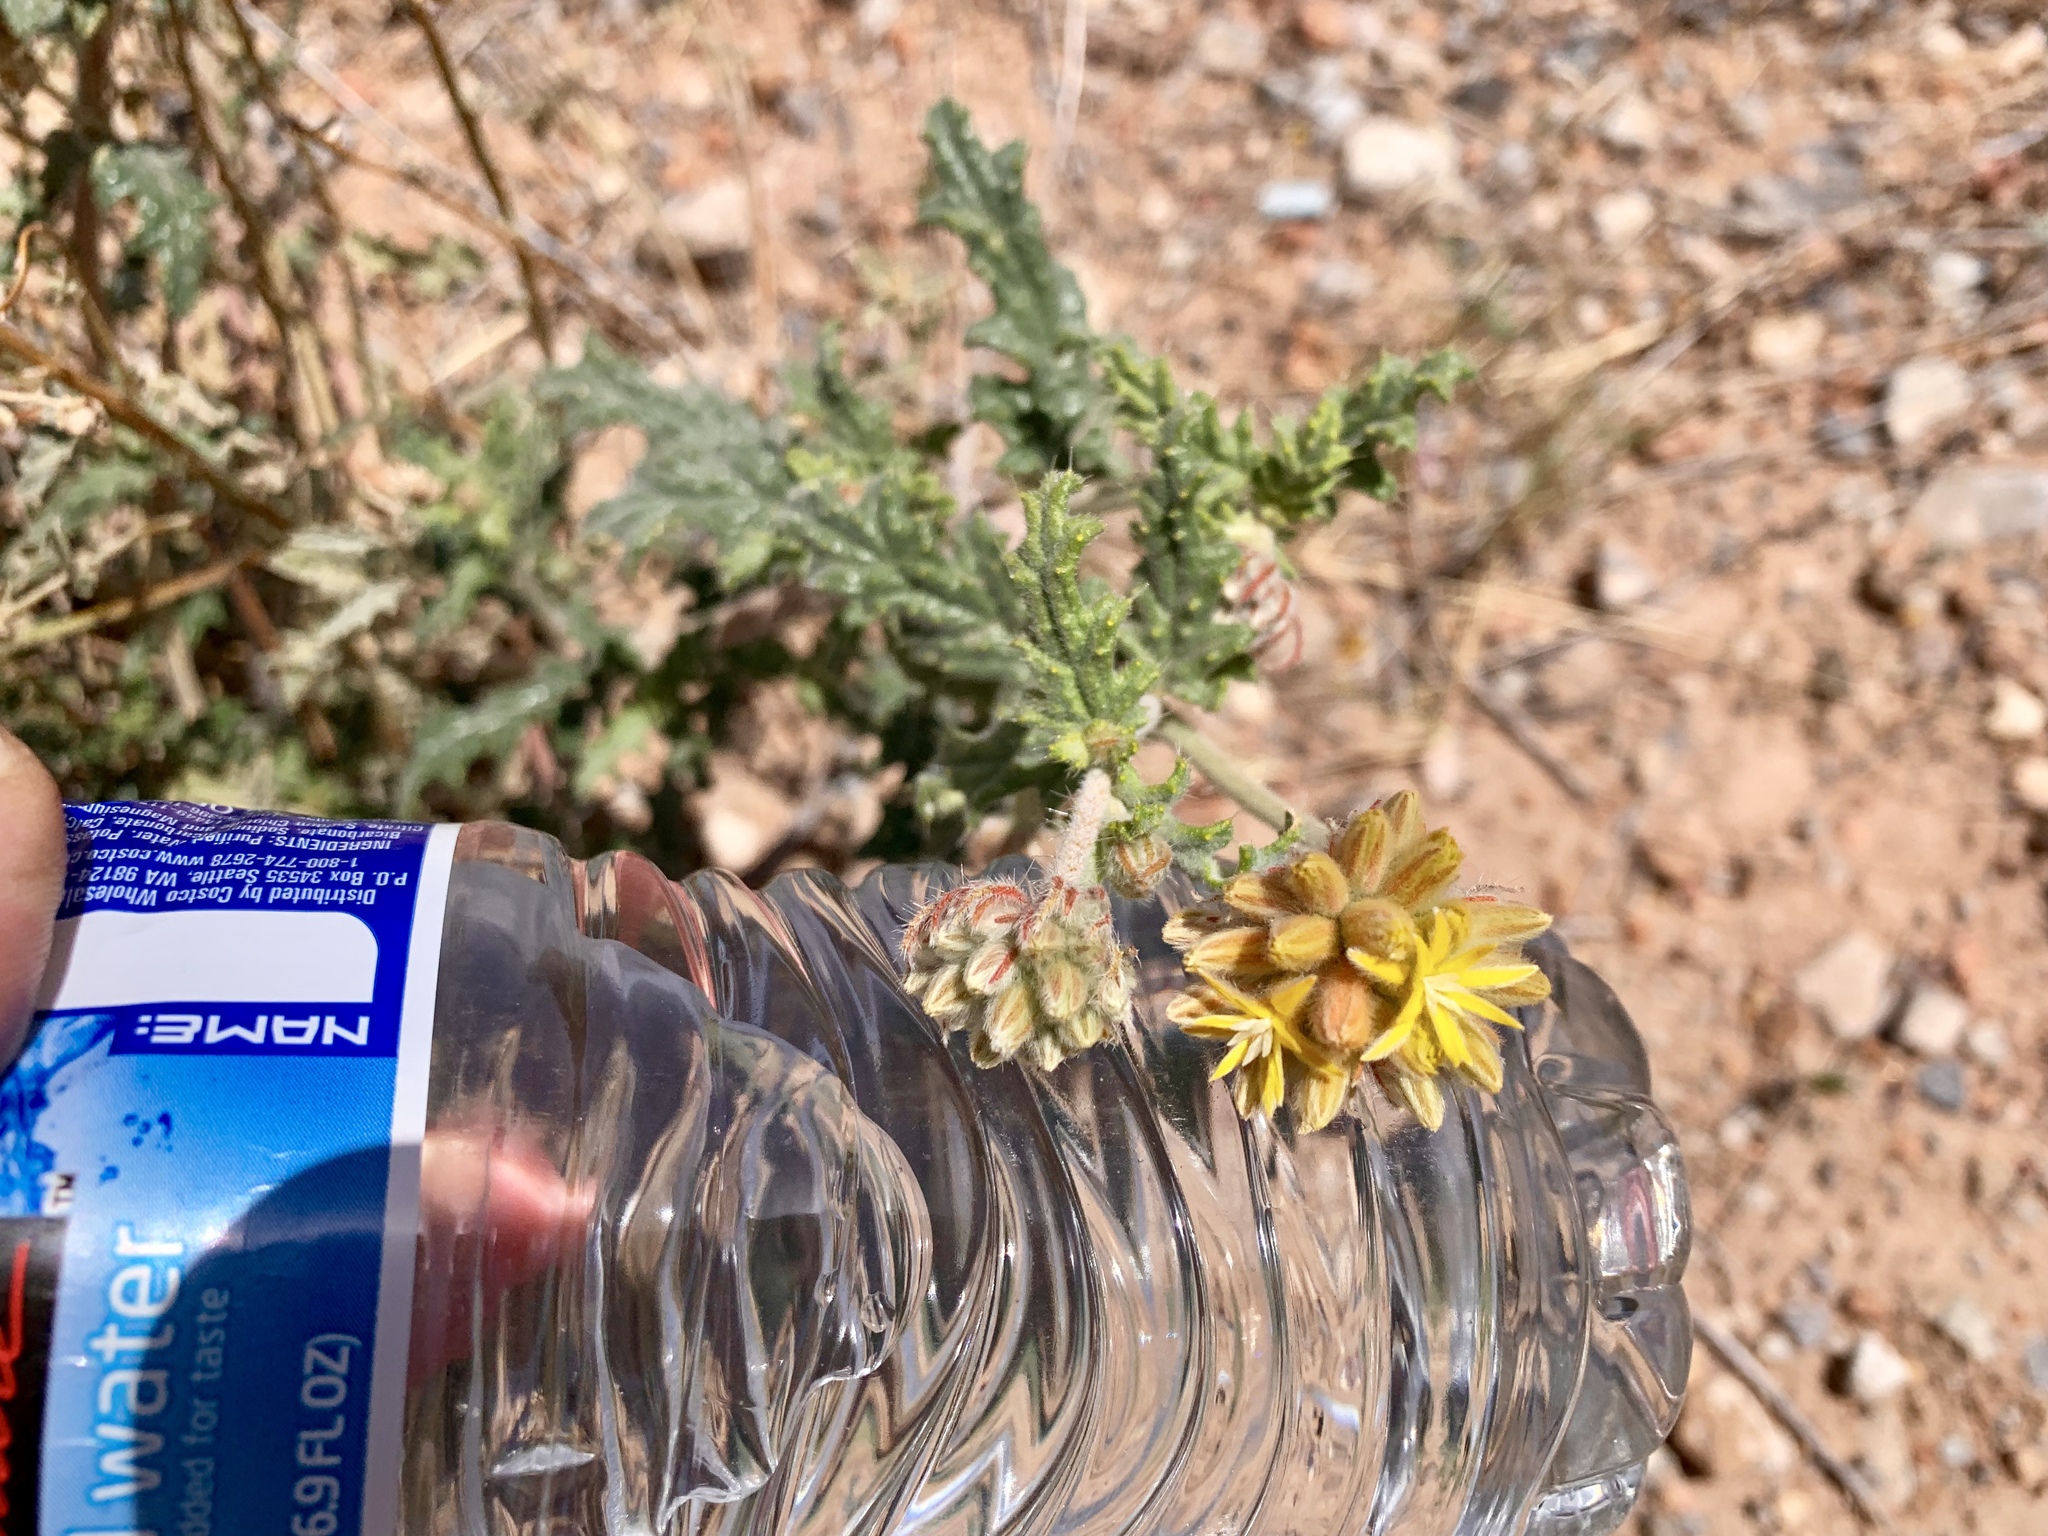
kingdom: Plantae
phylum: Tracheophyta
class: Magnoliopsida
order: Cornales
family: Loasaceae
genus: Cevallia
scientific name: Cevallia sinuata
